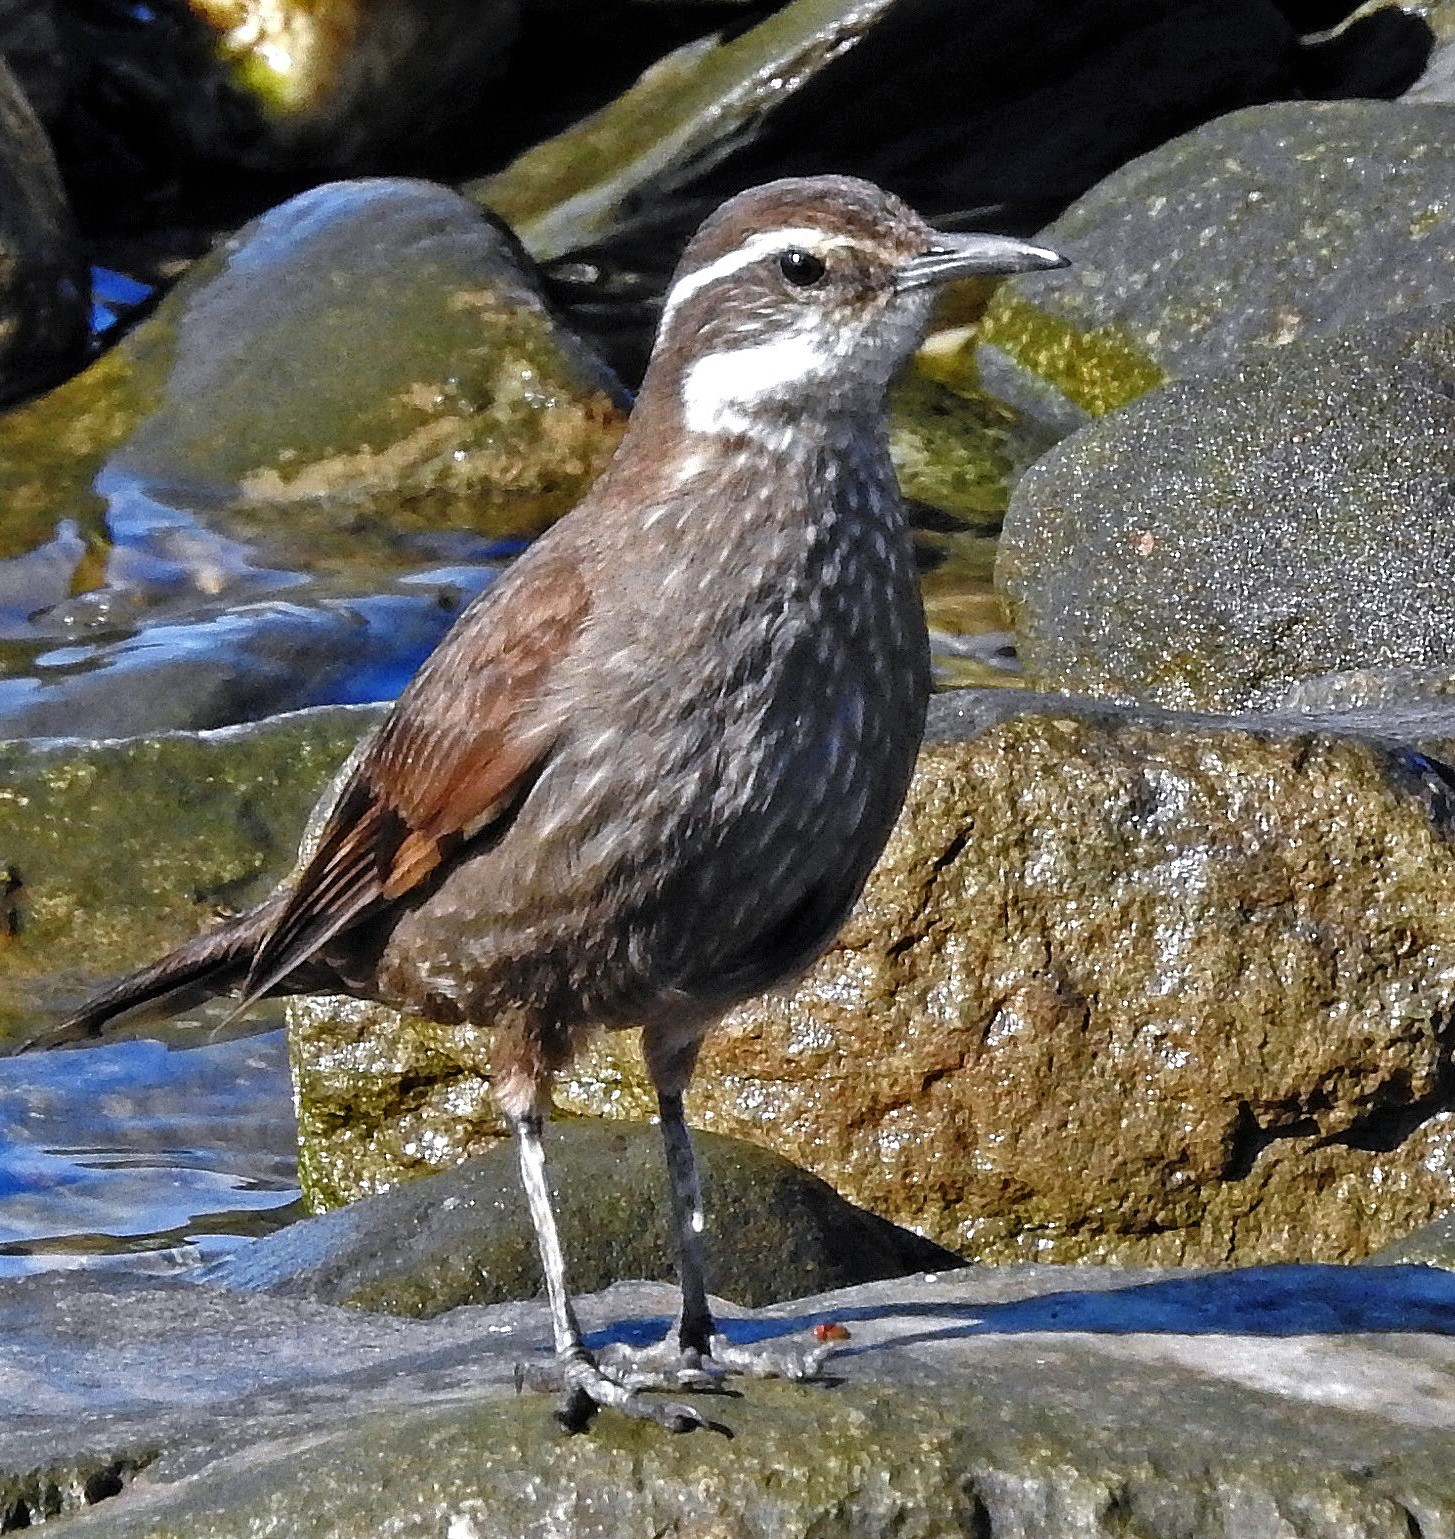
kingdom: Animalia
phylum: Chordata
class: Aves
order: Passeriformes
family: Furnariidae
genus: Cinclodes
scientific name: Cinclodes patagonicus
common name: Dark-bellied cinclodes
